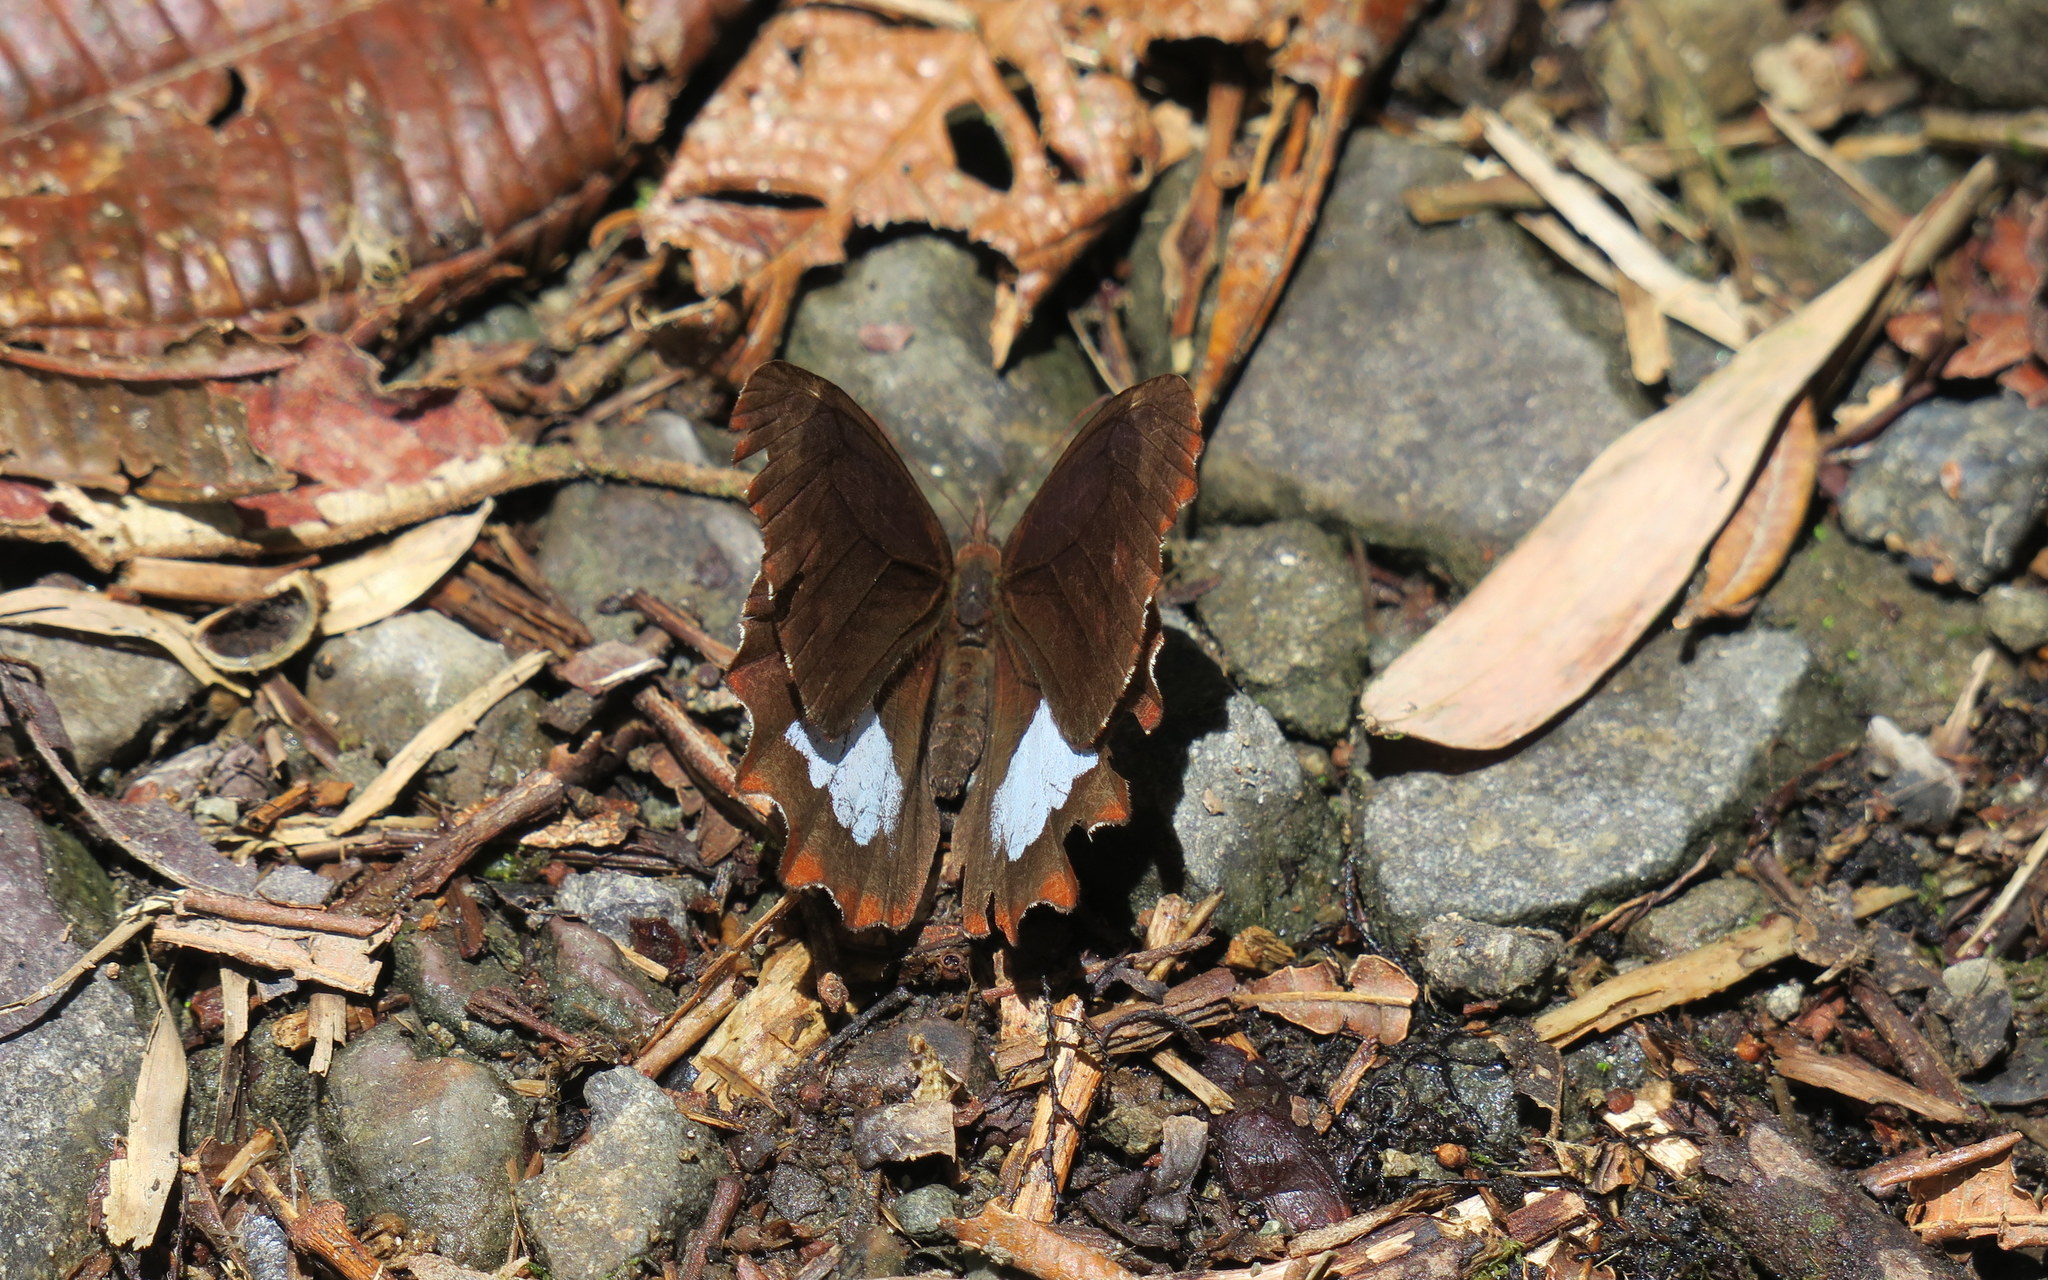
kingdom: Animalia
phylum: Arthropoda
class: Insecta
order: Lepidoptera
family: Nymphalidae
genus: Mygona
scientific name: Mygona irmina
